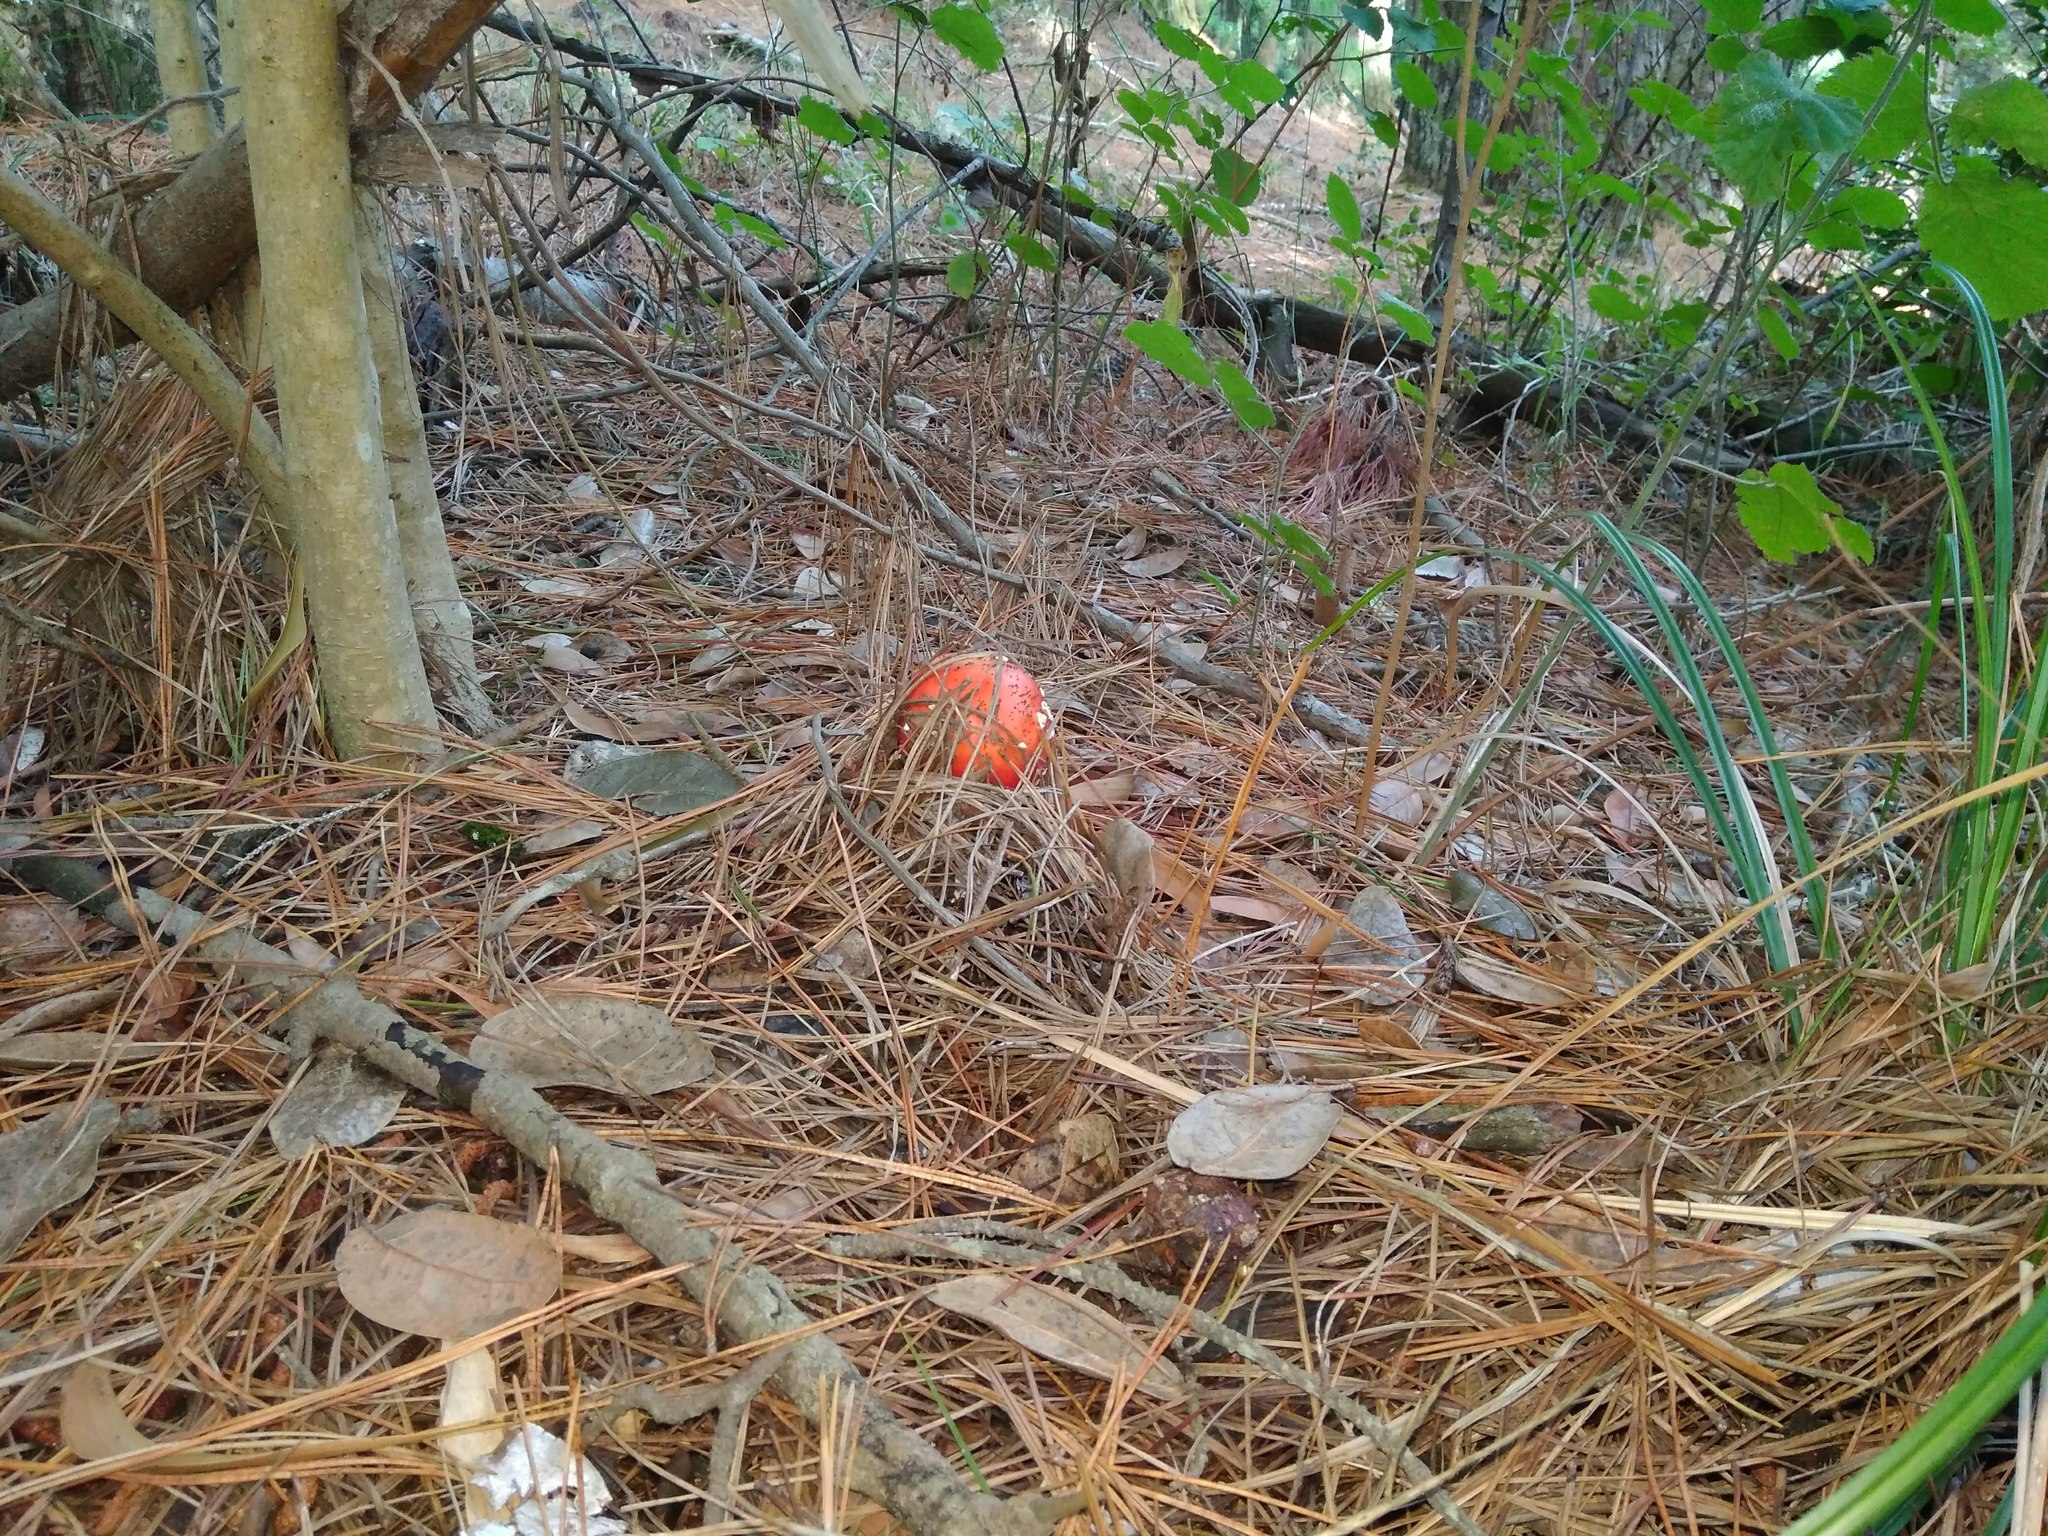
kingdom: Fungi
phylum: Basidiomycota
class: Agaricomycetes
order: Agaricales
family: Amanitaceae
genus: Amanita
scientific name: Amanita muscaria
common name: Fly agaric
